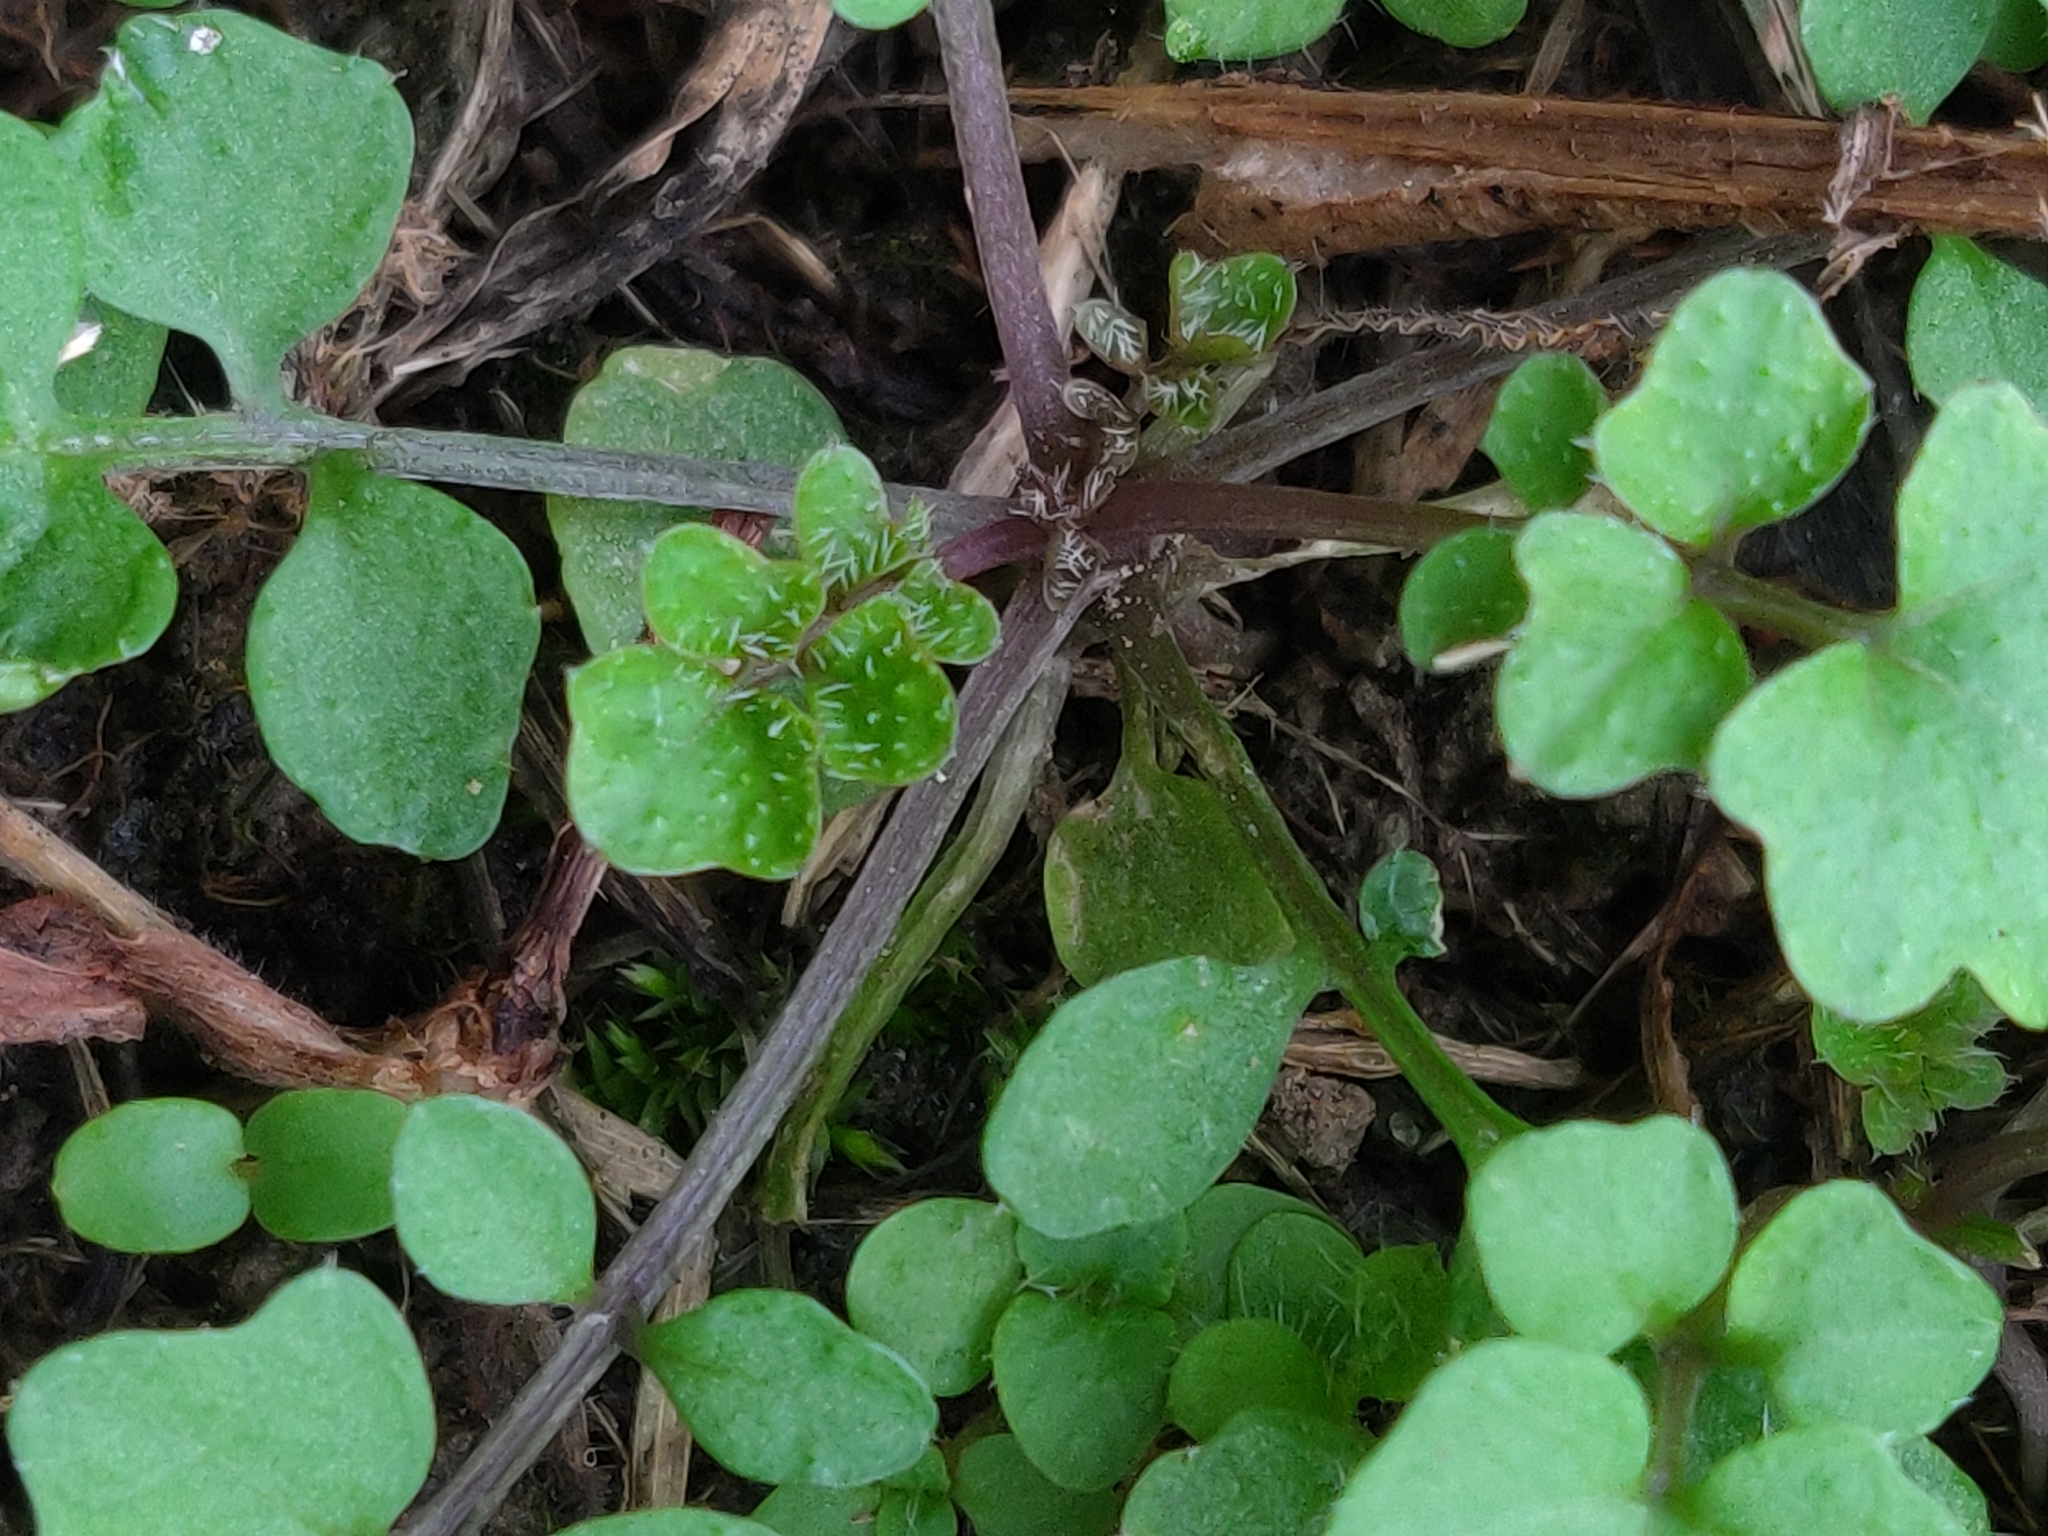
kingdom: Plantae
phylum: Tracheophyta
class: Magnoliopsida
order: Brassicales
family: Brassicaceae
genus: Cardamine
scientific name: Cardamine hirsuta
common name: Hairy bittercress
